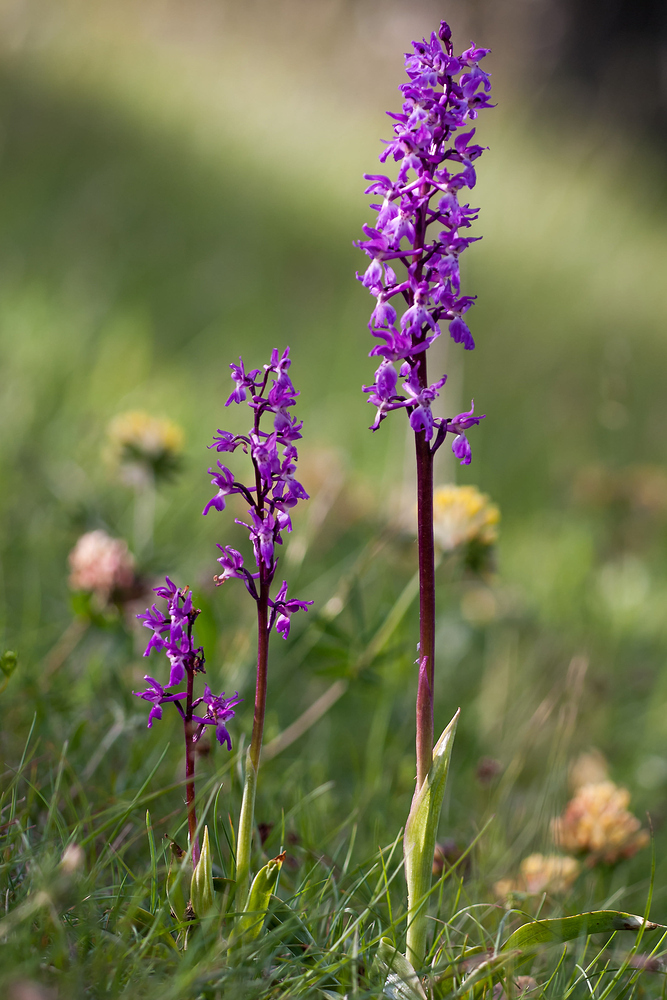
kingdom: Plantae
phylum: Tracheophyta
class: Liliopsida
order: Asparagales
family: Orchidaceae
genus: Orchis
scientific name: Orchis mascula
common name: Early-purple orchid
